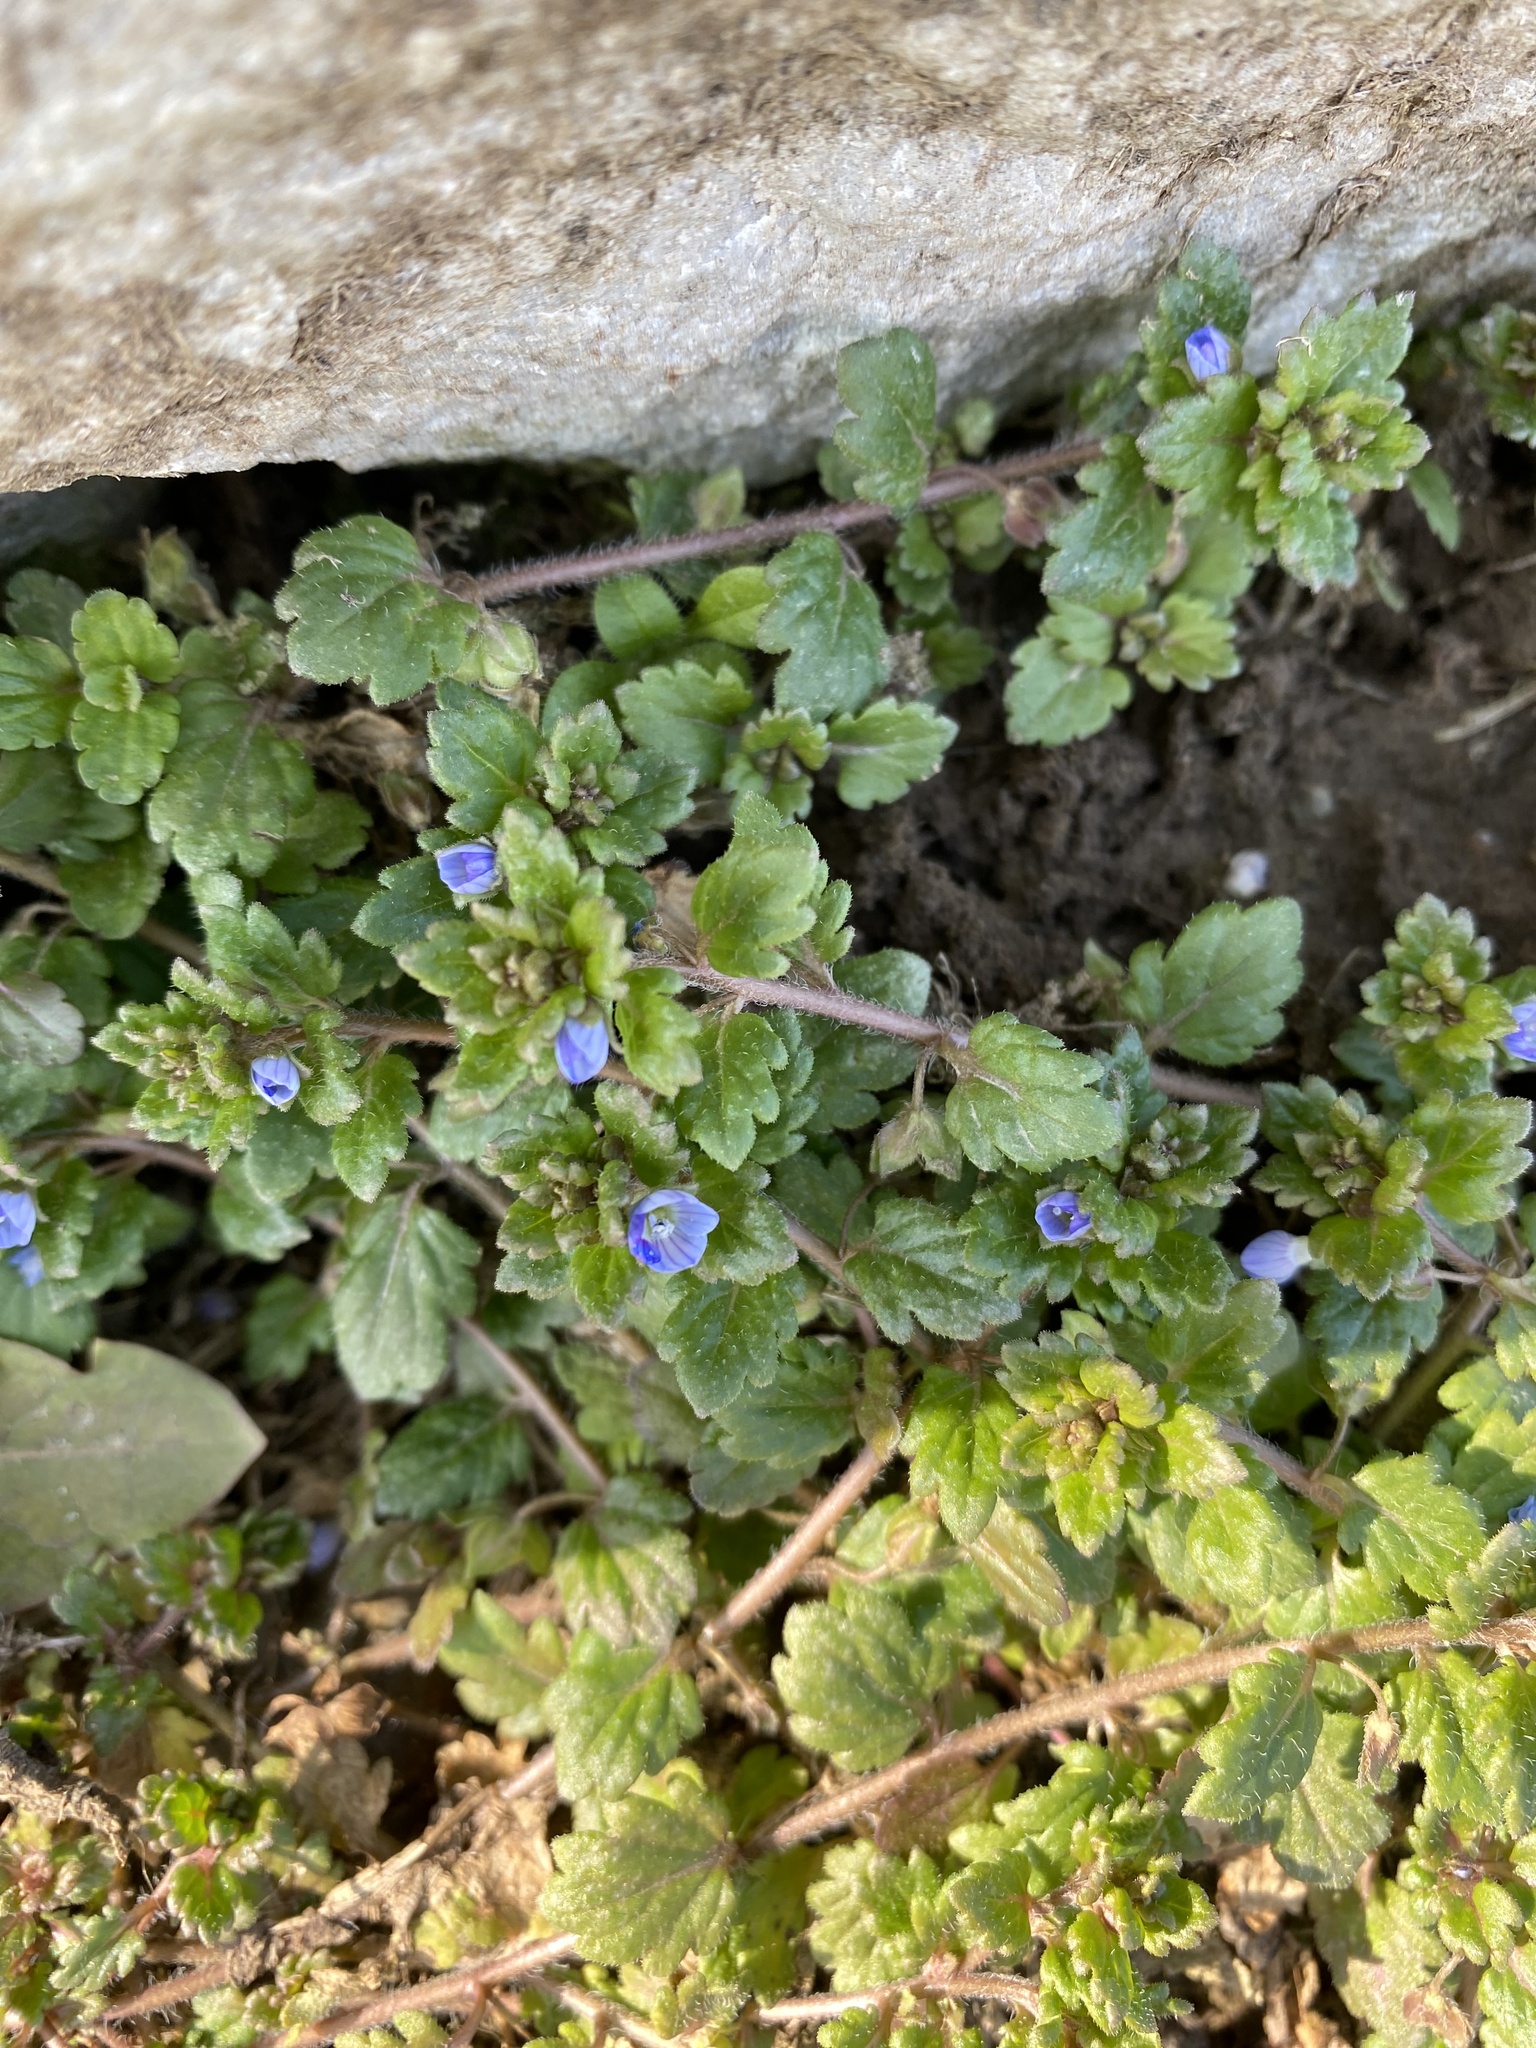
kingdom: Plantae
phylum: Tracheophyta
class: Magnoliopsida
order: Lamiales
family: Plantaginaceae
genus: Veronica
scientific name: Veronica polita
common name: Grey field-speedwell
